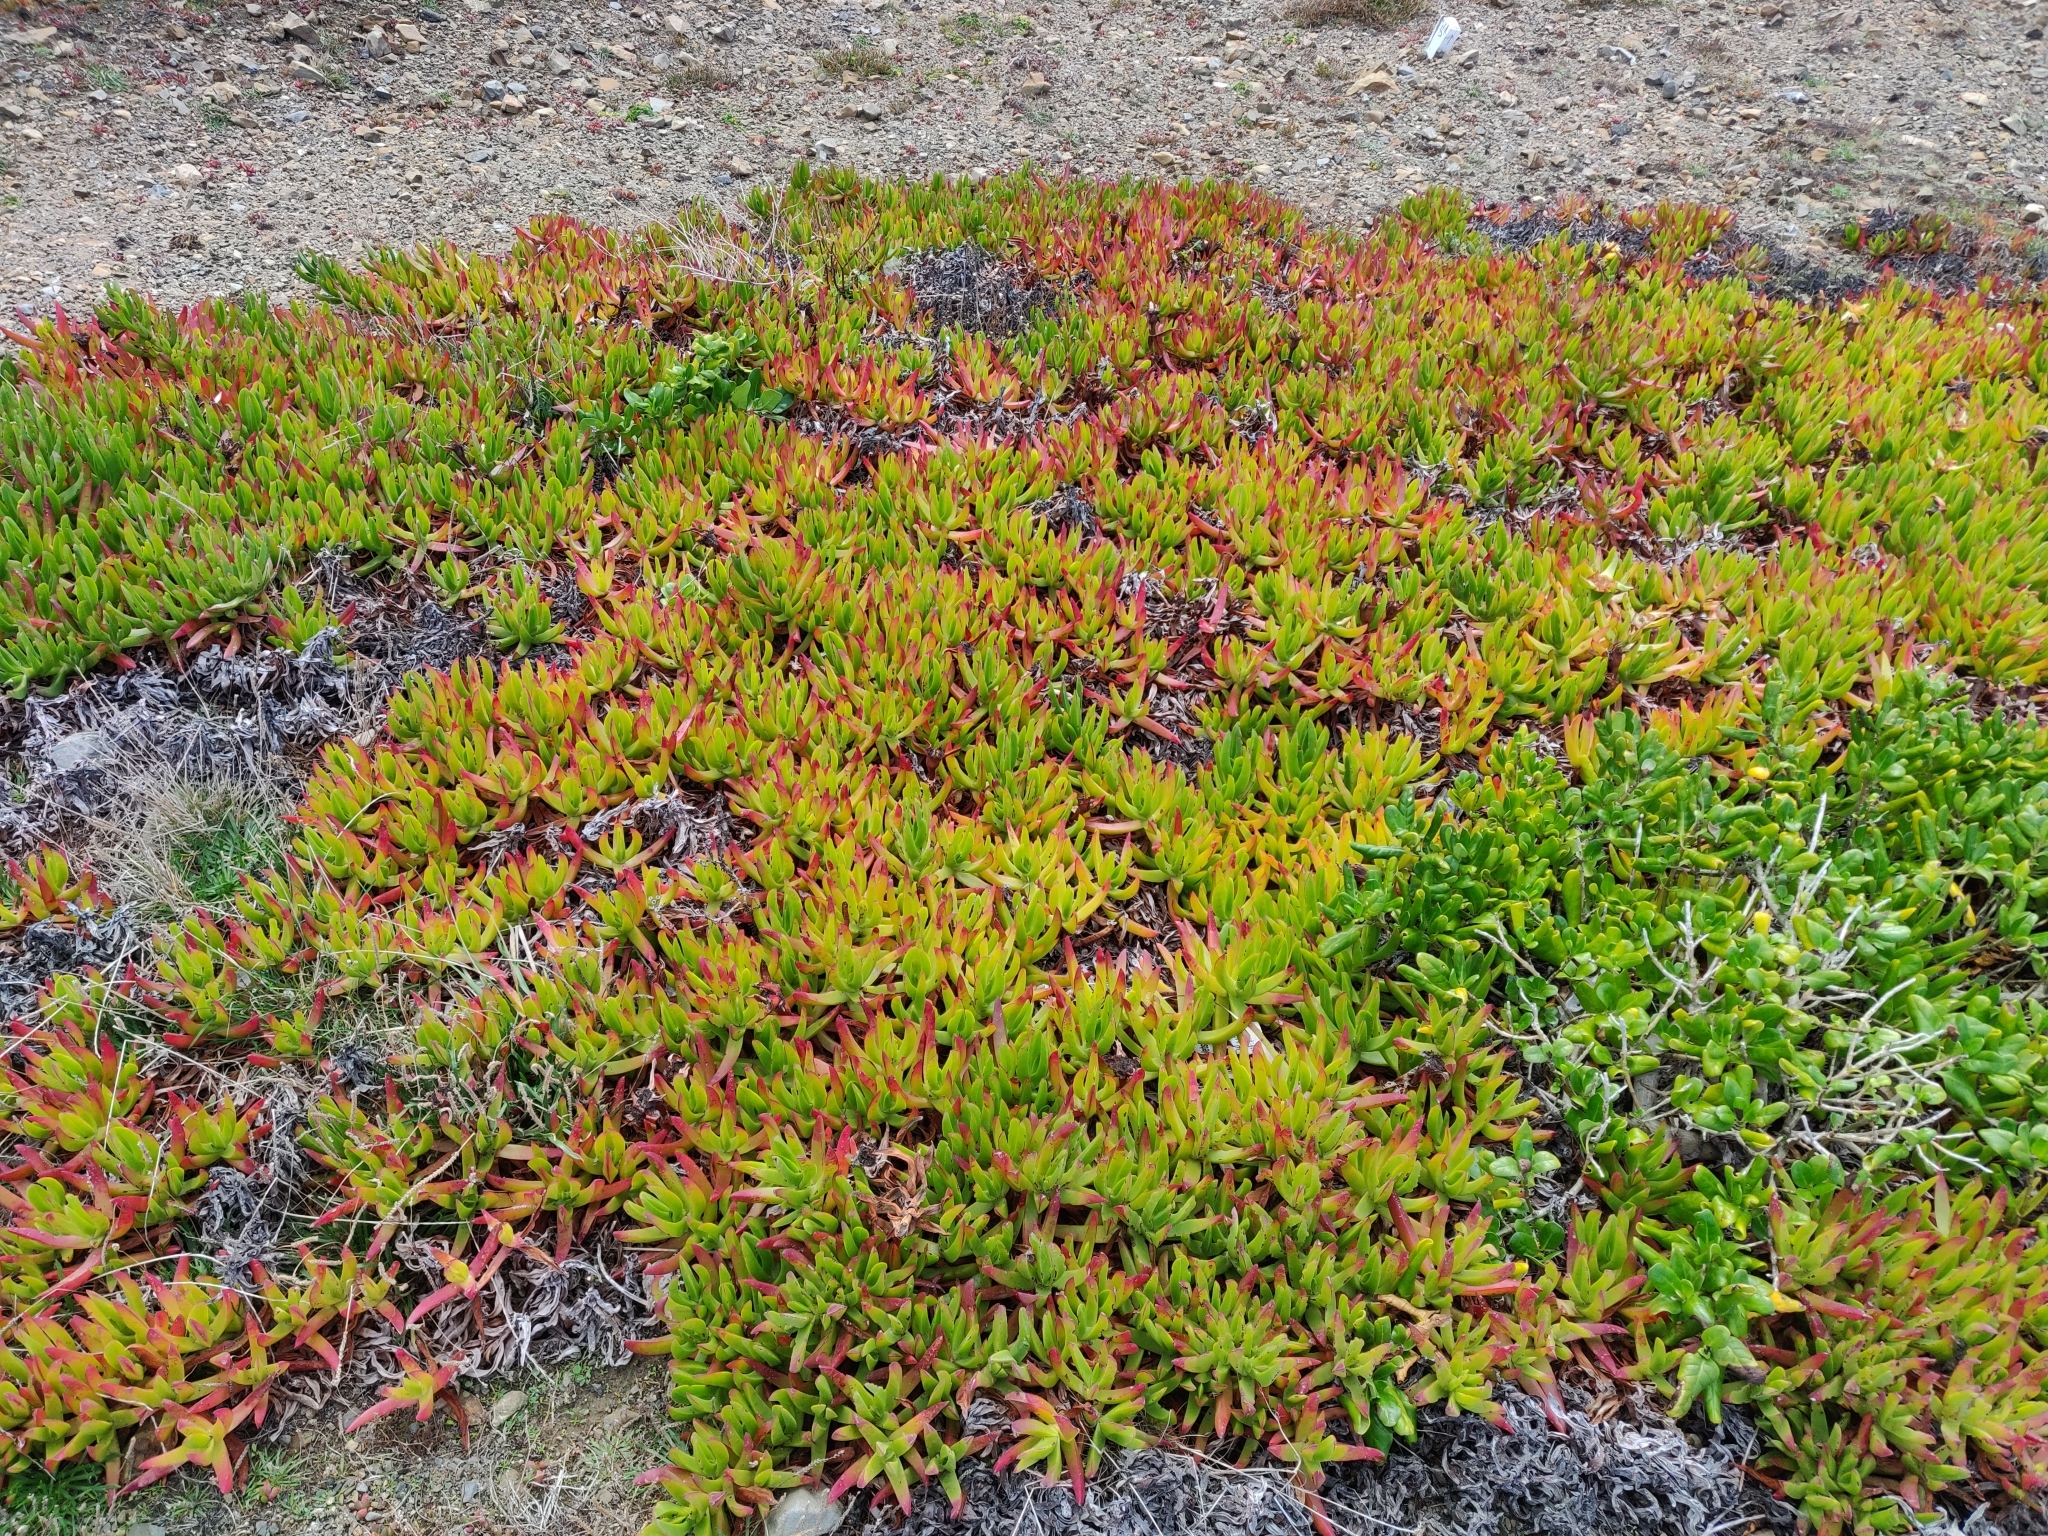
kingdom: Plantae
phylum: Tracheophyta
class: Magnoliopsida
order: Caryophyllales
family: Aizoaceae
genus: Carpobrotus
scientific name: Carpobrotus edulis
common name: Hottentot-fig
